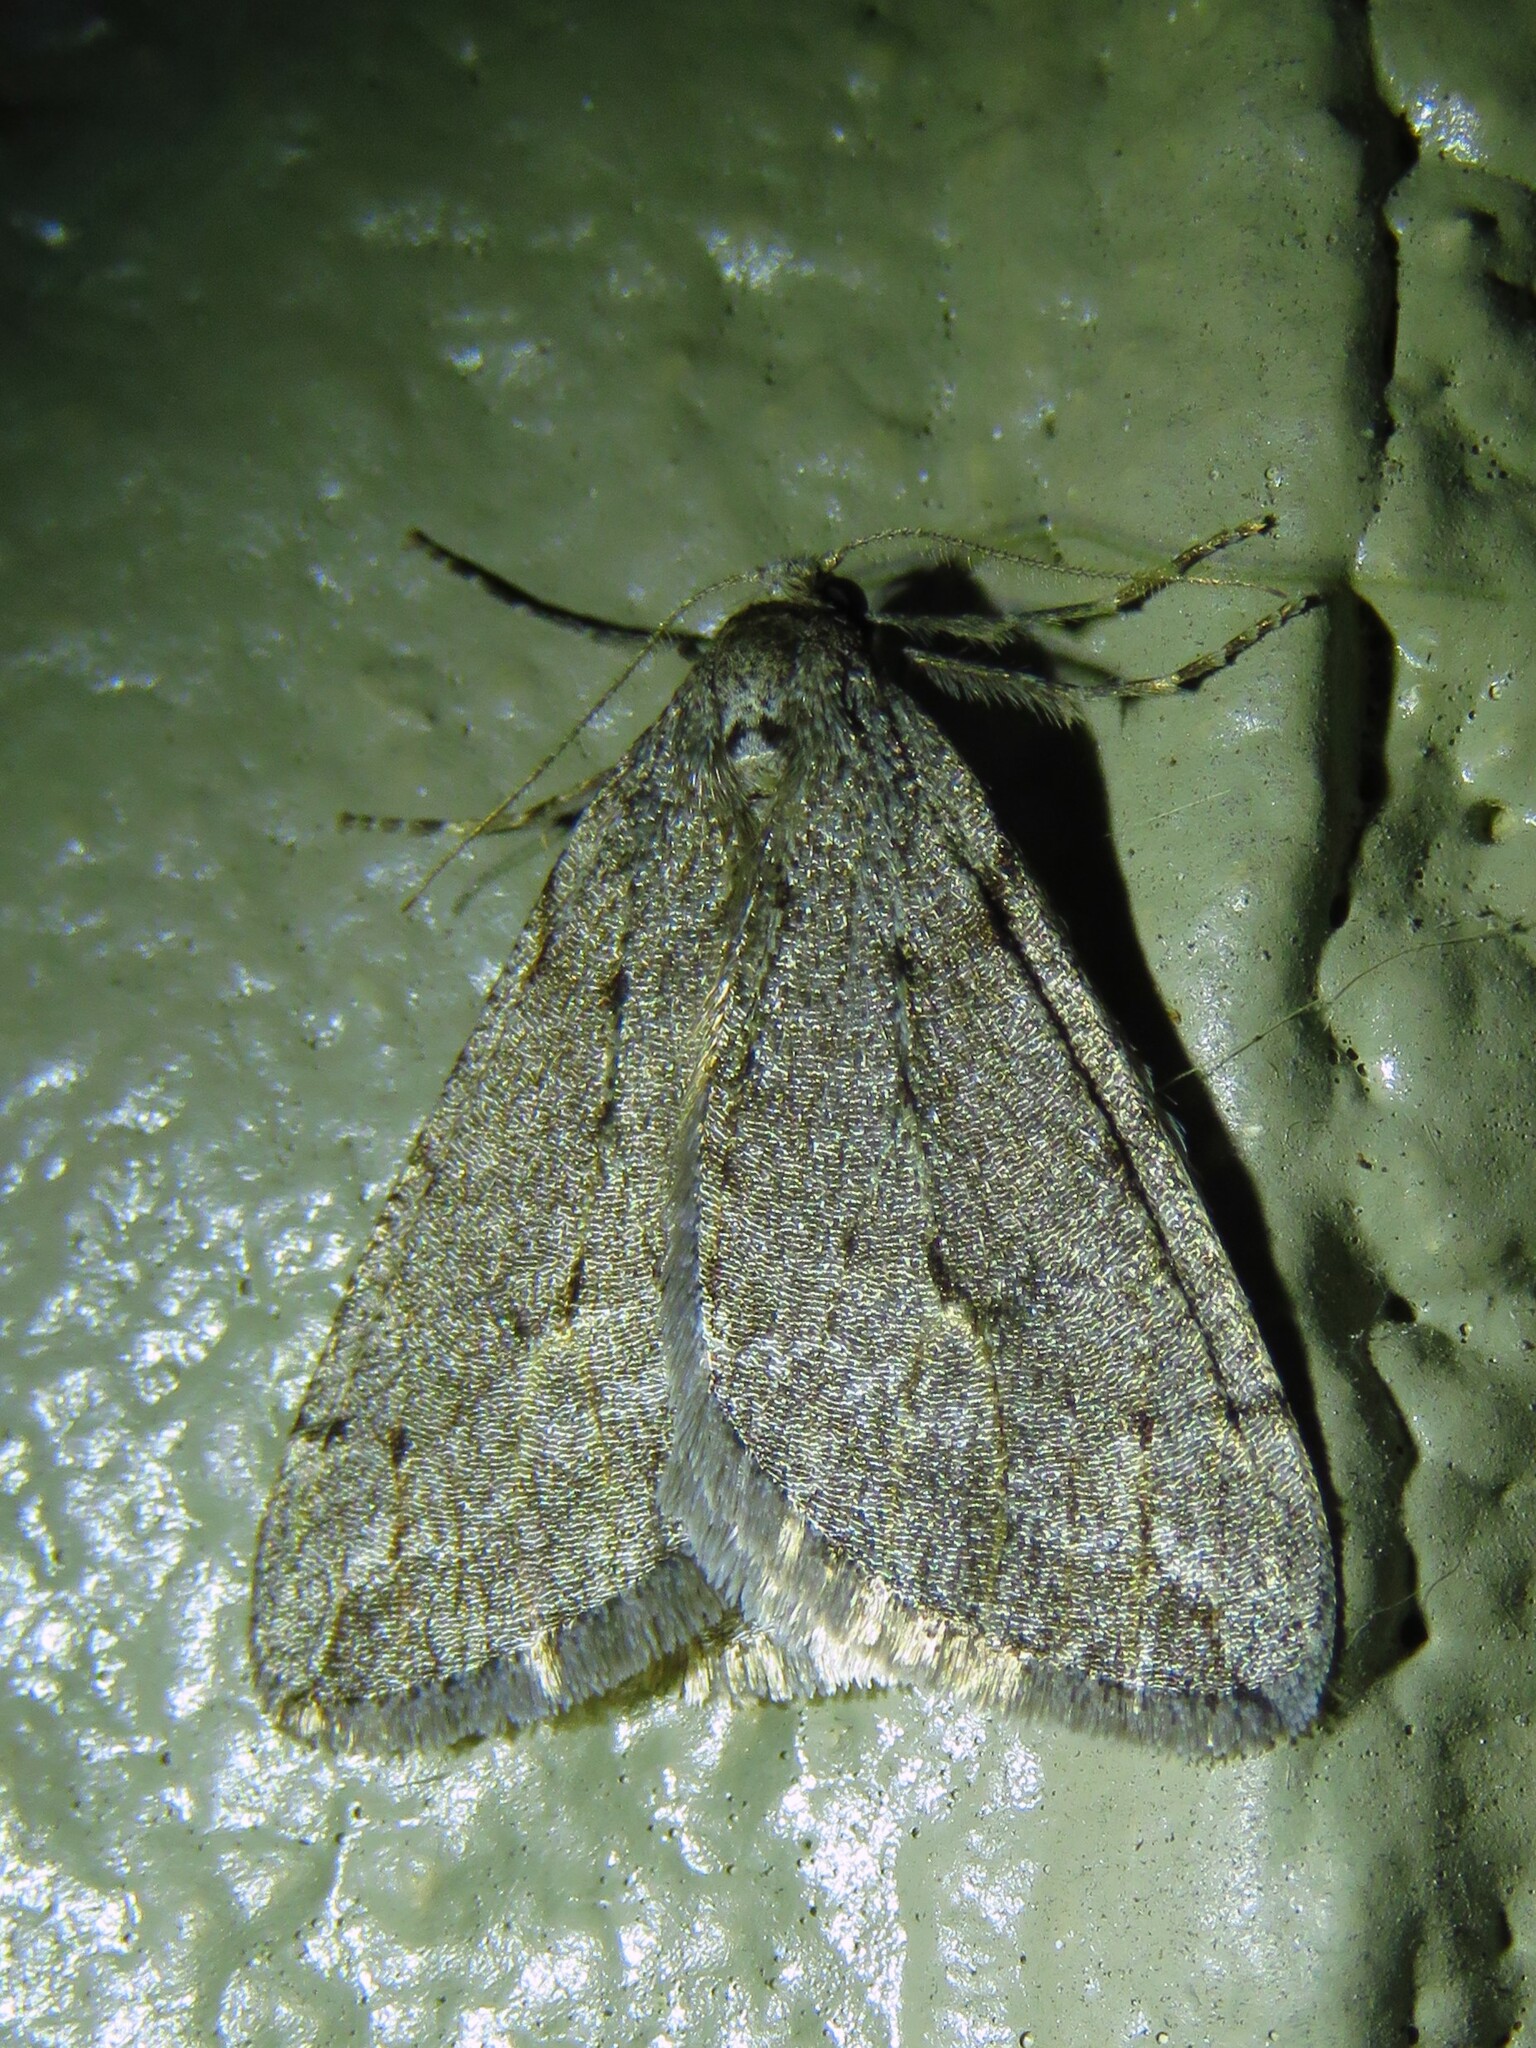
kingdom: Animalia
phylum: Arthropoda
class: Insecta
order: Lepidoptera
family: Geometridae
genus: Paleacrita
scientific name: Paleacrita vernata
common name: Spring cankerworm
